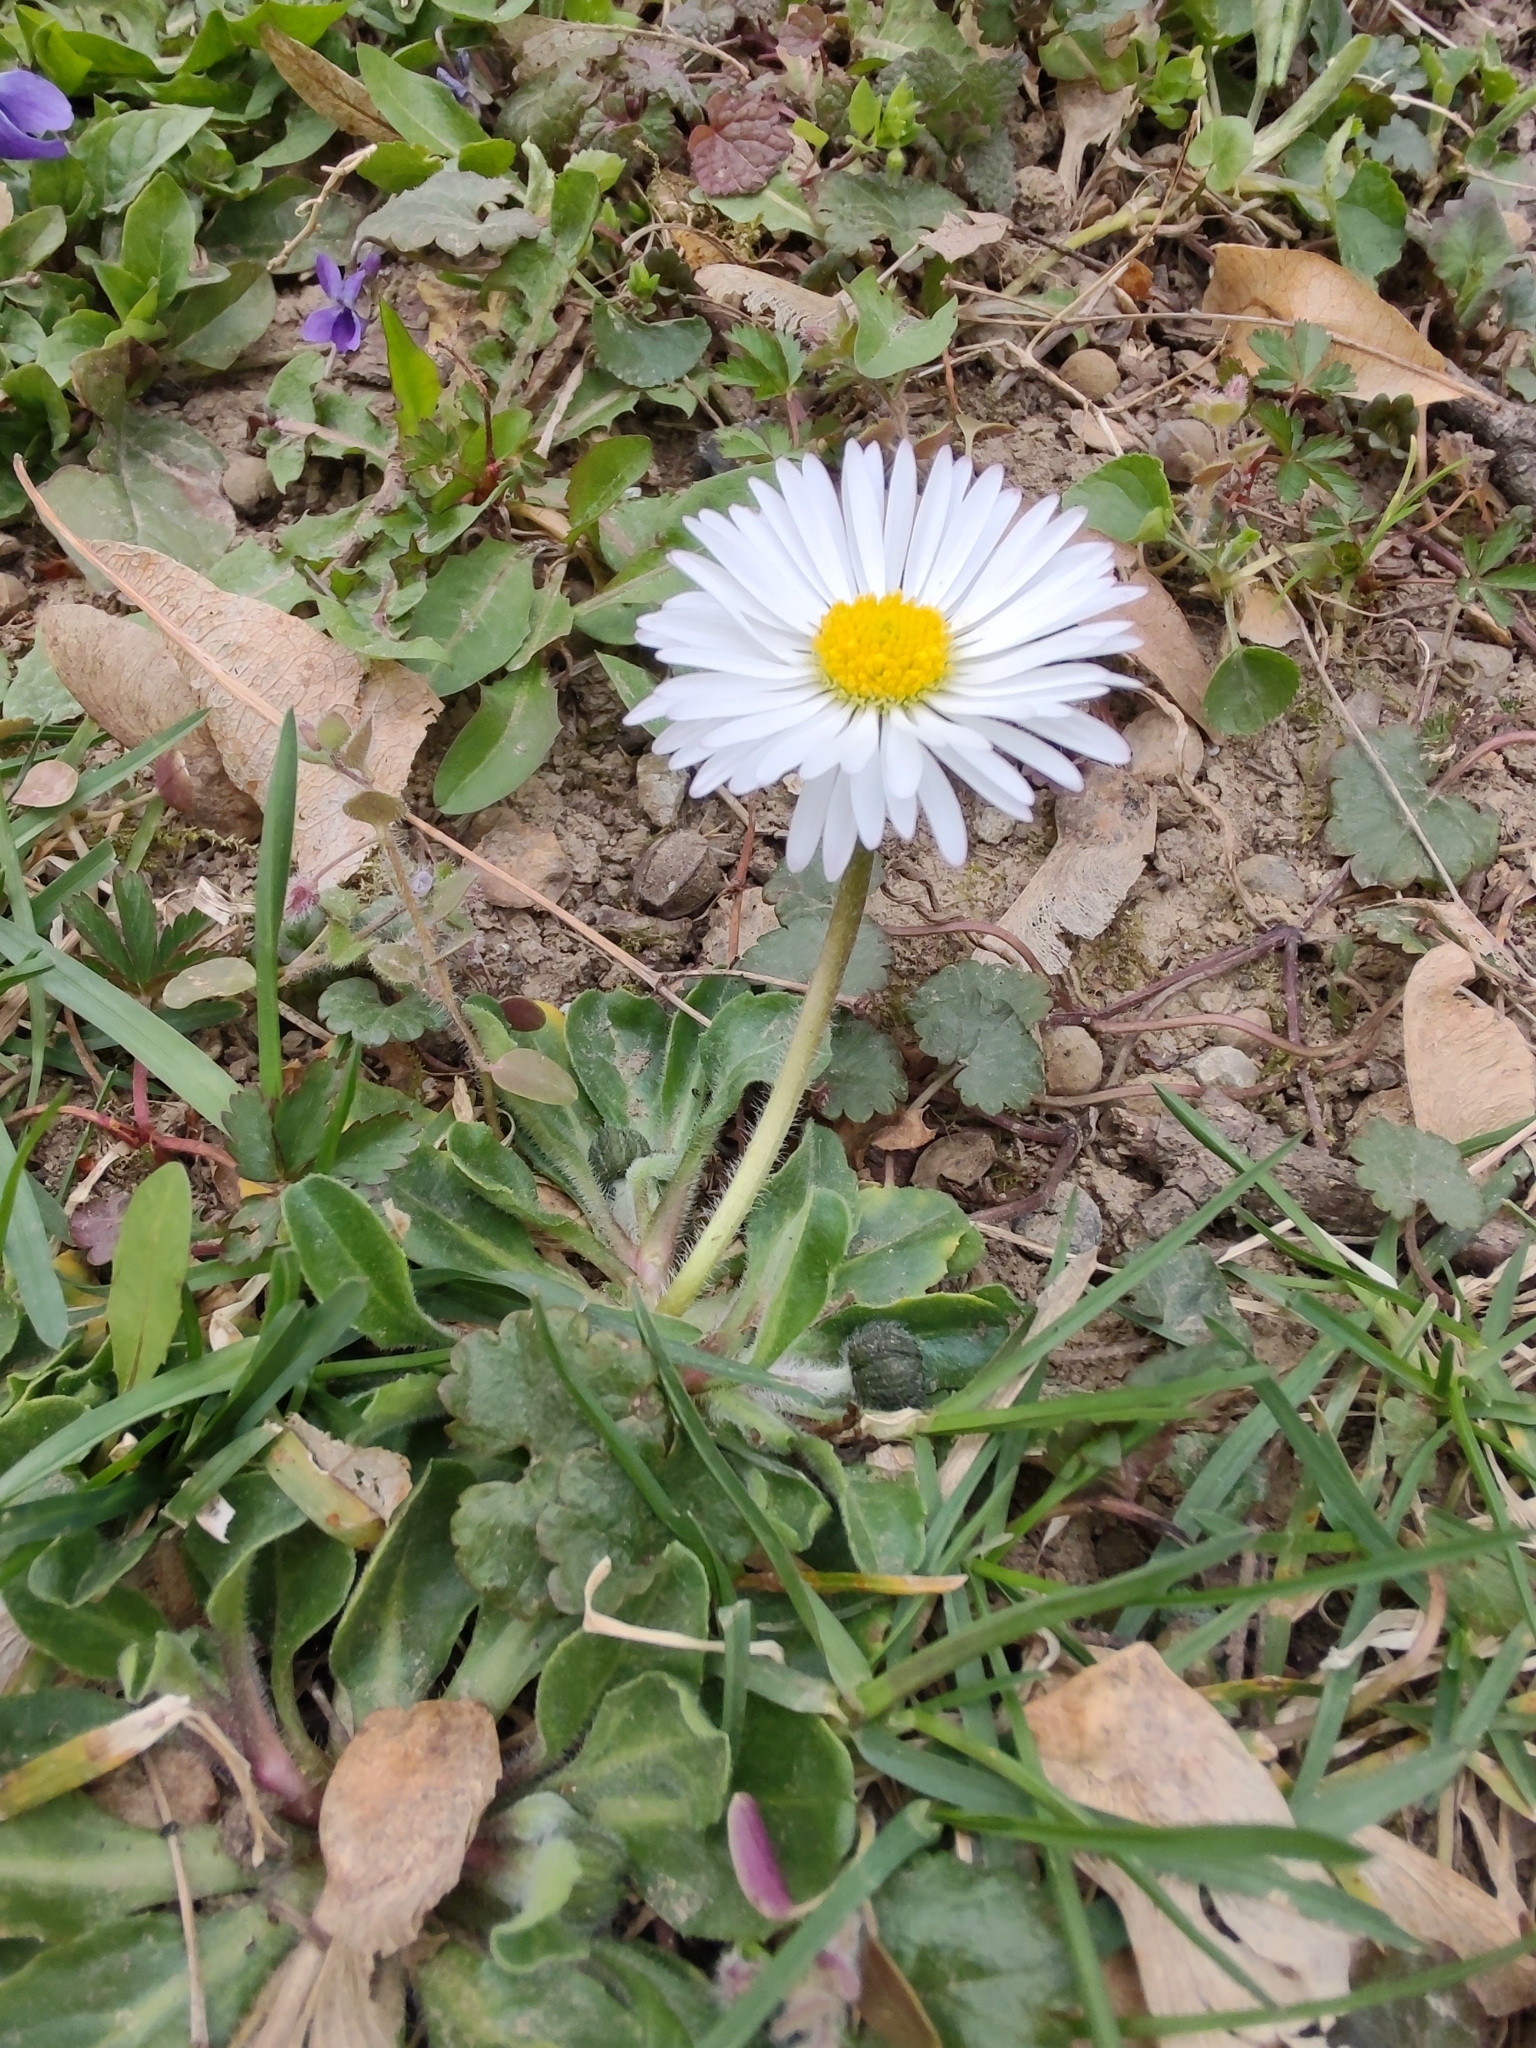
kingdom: Plantae
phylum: Tracheophyta
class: Magnoliopsida
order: Asterales
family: Asteraceae
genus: Bellis
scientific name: Bellis perennis
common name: Lawndaisy
